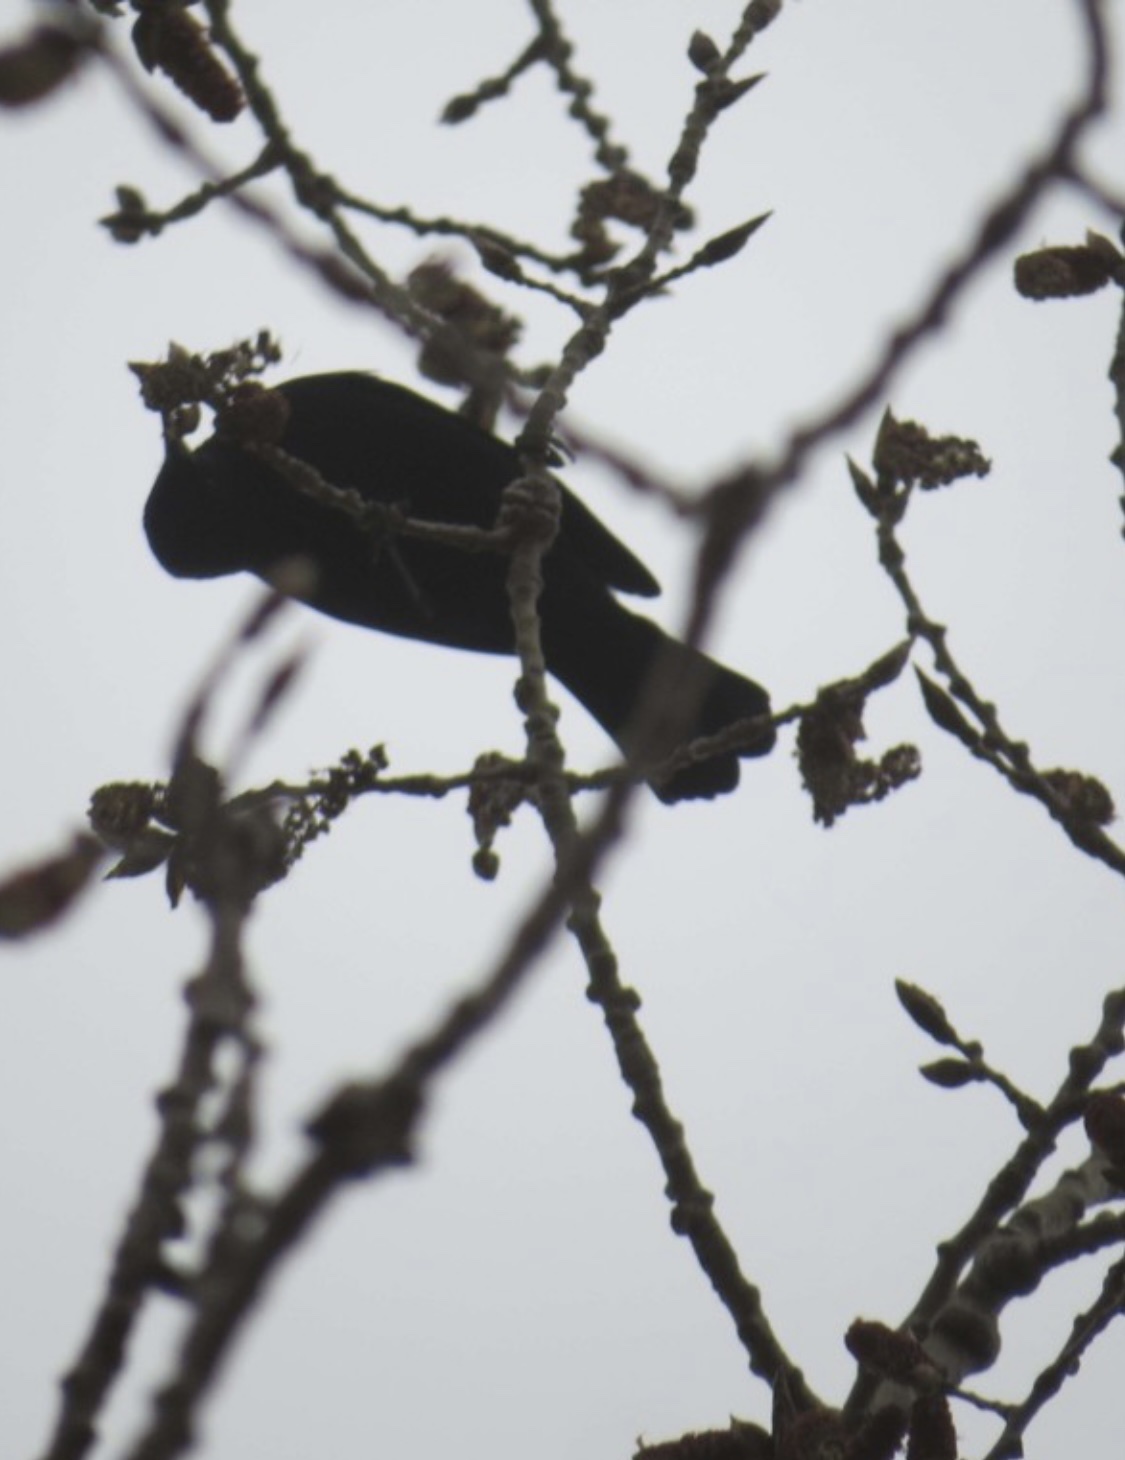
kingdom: Animalia
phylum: Chordata
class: Aves
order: Passeriformes
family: Icteridae
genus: Agelaius
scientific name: Agelaius phoeniceus
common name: Red-winged blackbird
